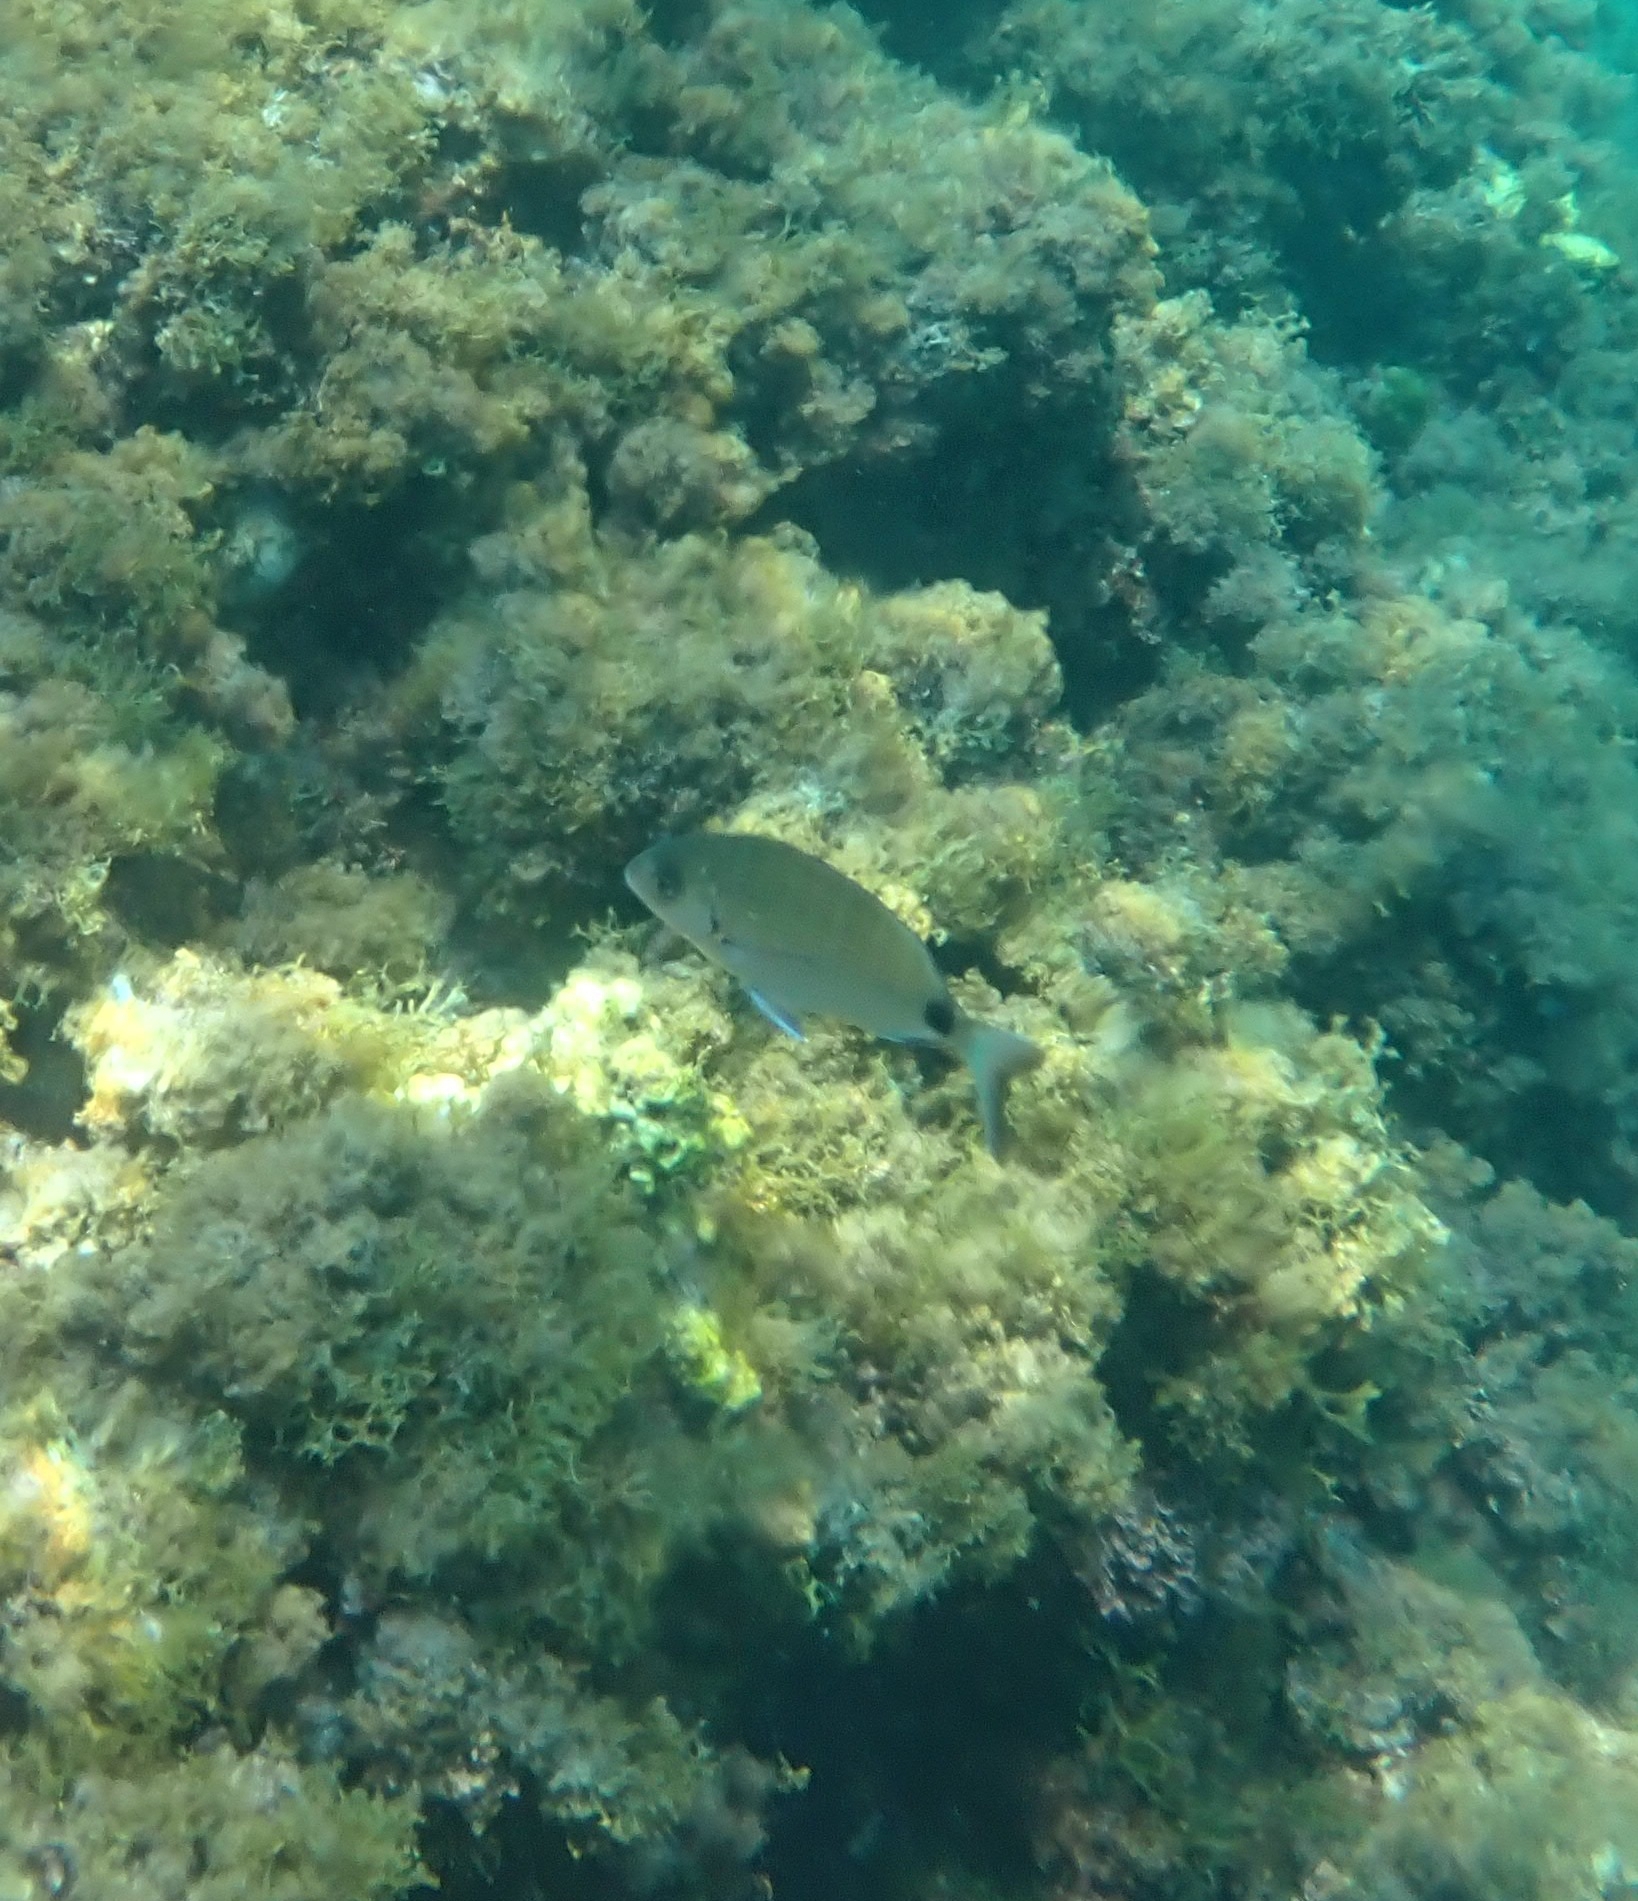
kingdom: Animalia
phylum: Chordata
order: Perciformes
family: Sparidae
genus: Diplodus
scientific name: Diplodus sargus
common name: White seabream
